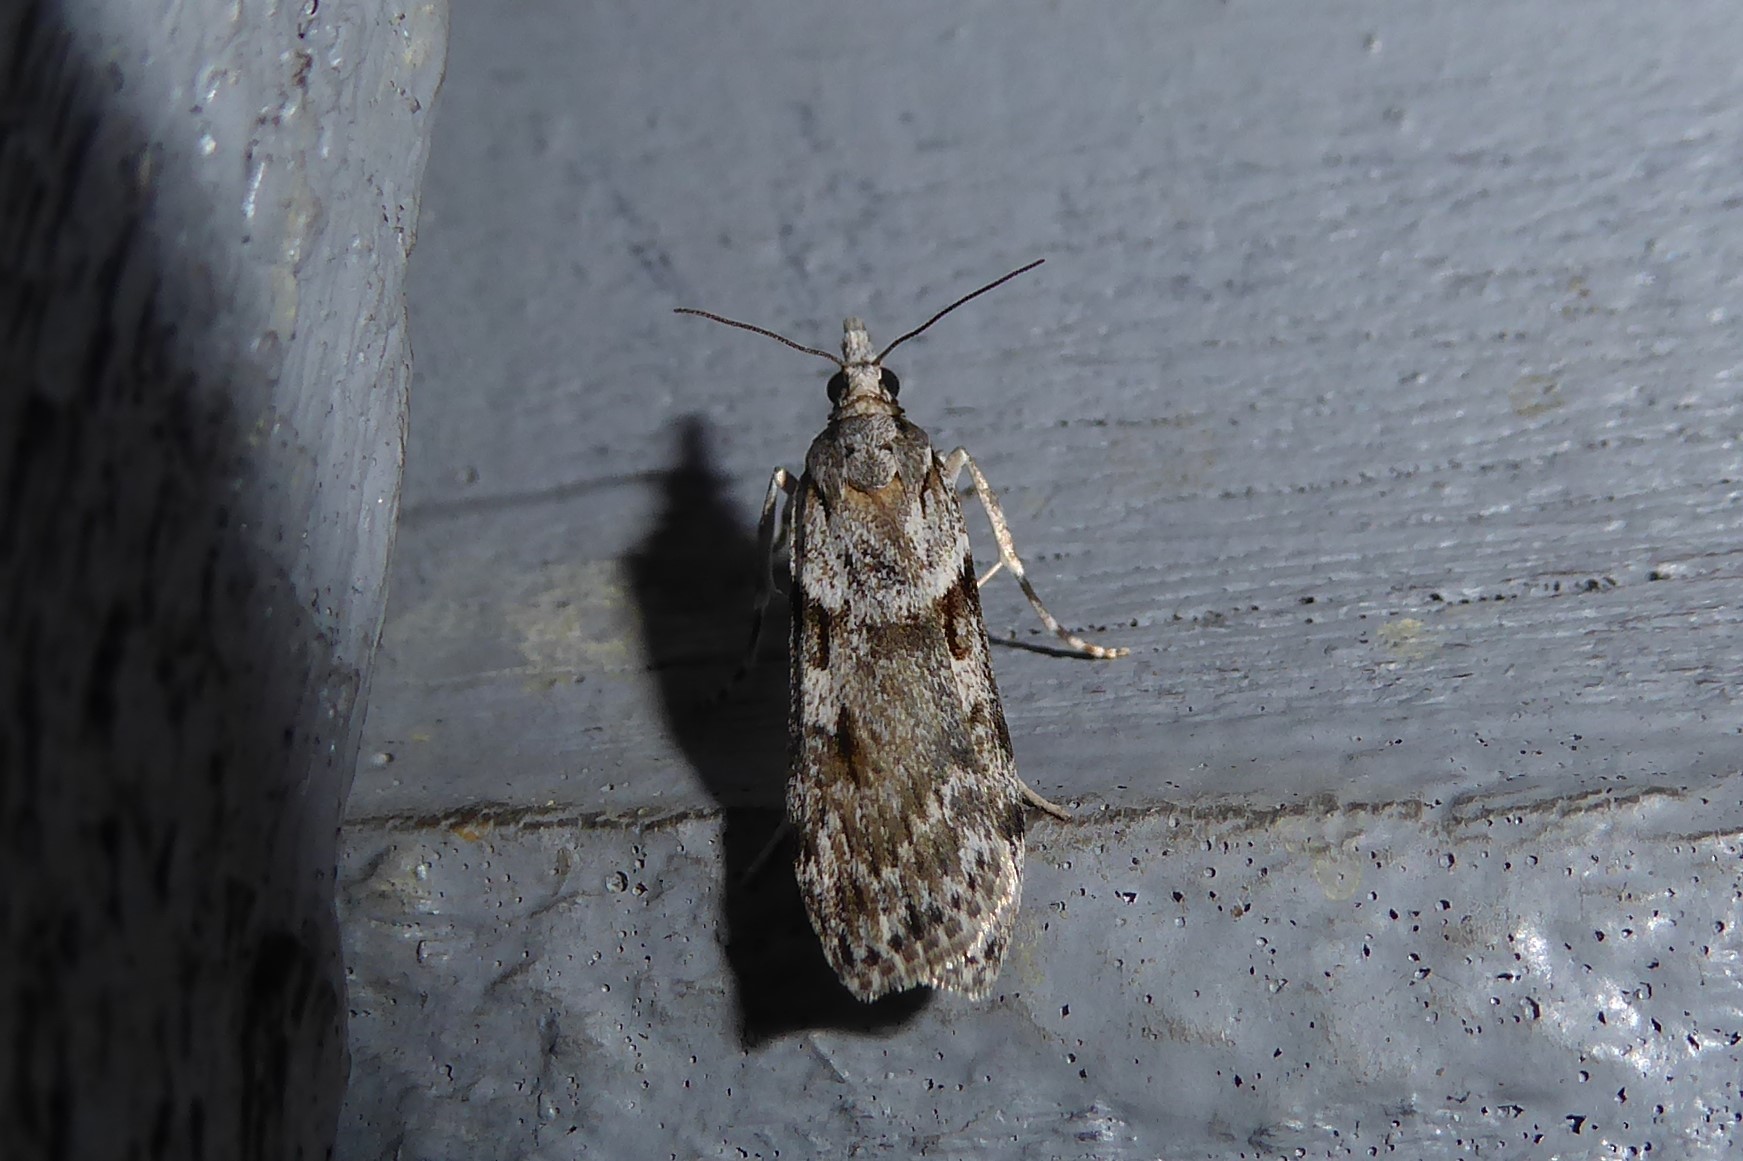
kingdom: Animalia
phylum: Arthropoda
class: Insecta
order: Lepidoptera
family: Crambidae
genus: Scoparia
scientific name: Scoparia halopis
